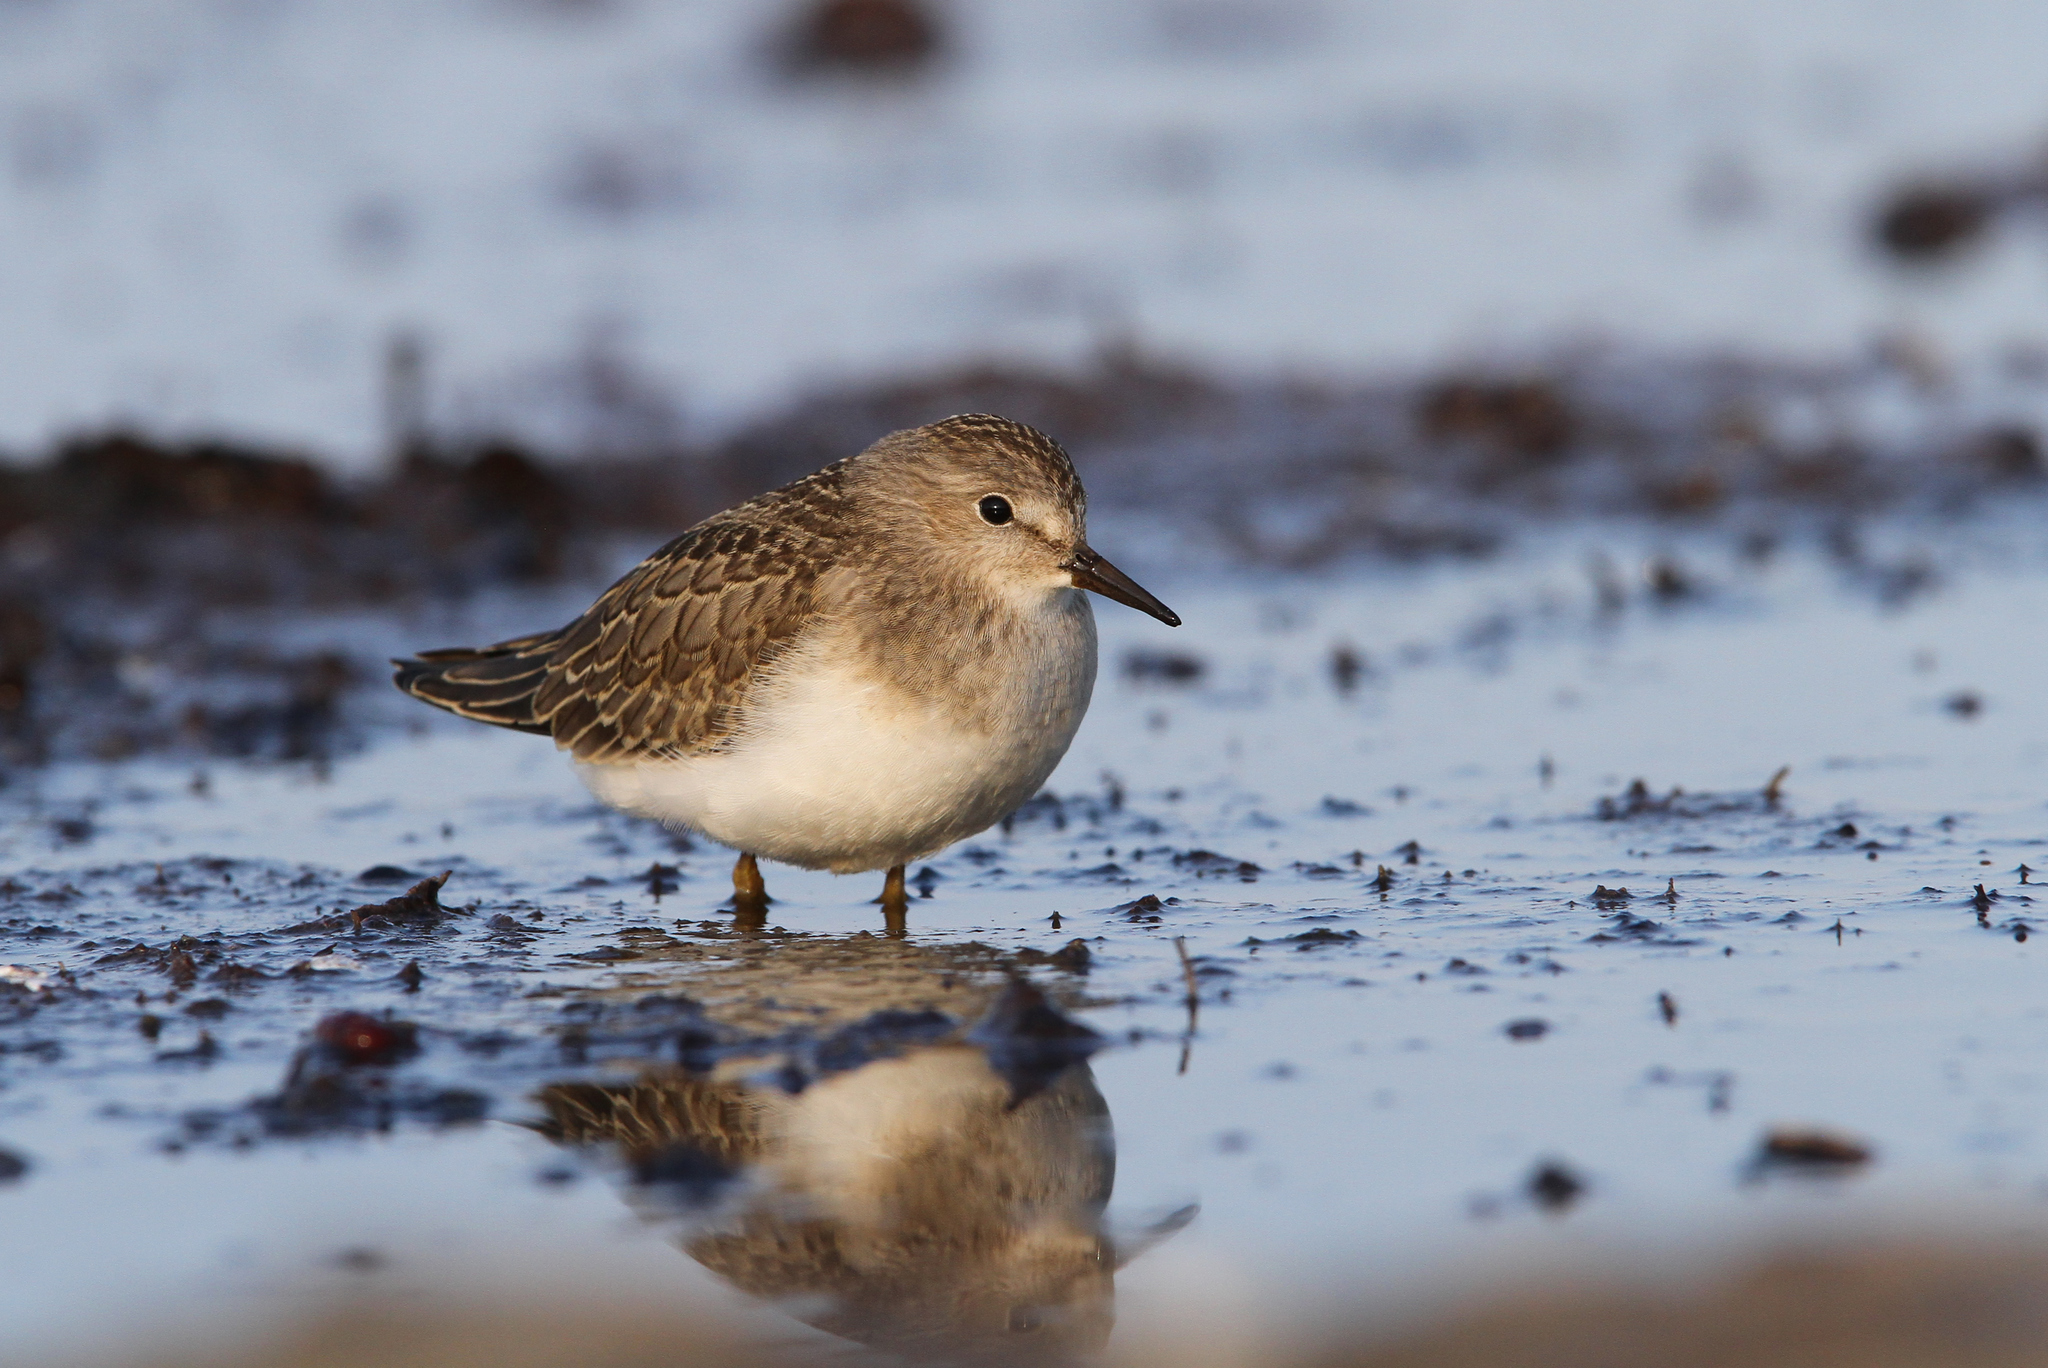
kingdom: Animalia
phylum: Chordata
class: Aves
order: Charadriiformes
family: Scolopacidae
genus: Calidris
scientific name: Calidris temminckii
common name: Temminck's stint
